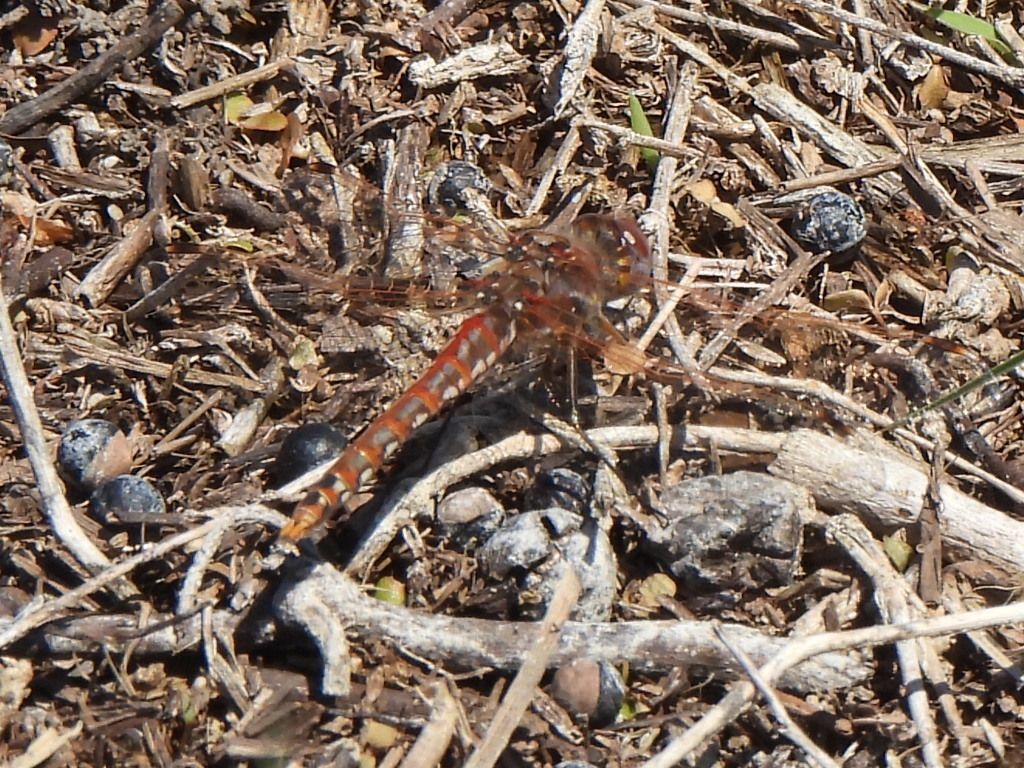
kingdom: Animalia
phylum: Arthropoda
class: Insecta
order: Odonata
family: Libellulidae
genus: Sympetrum
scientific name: Sympetrum corruptum
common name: Variegated meadowhawk
